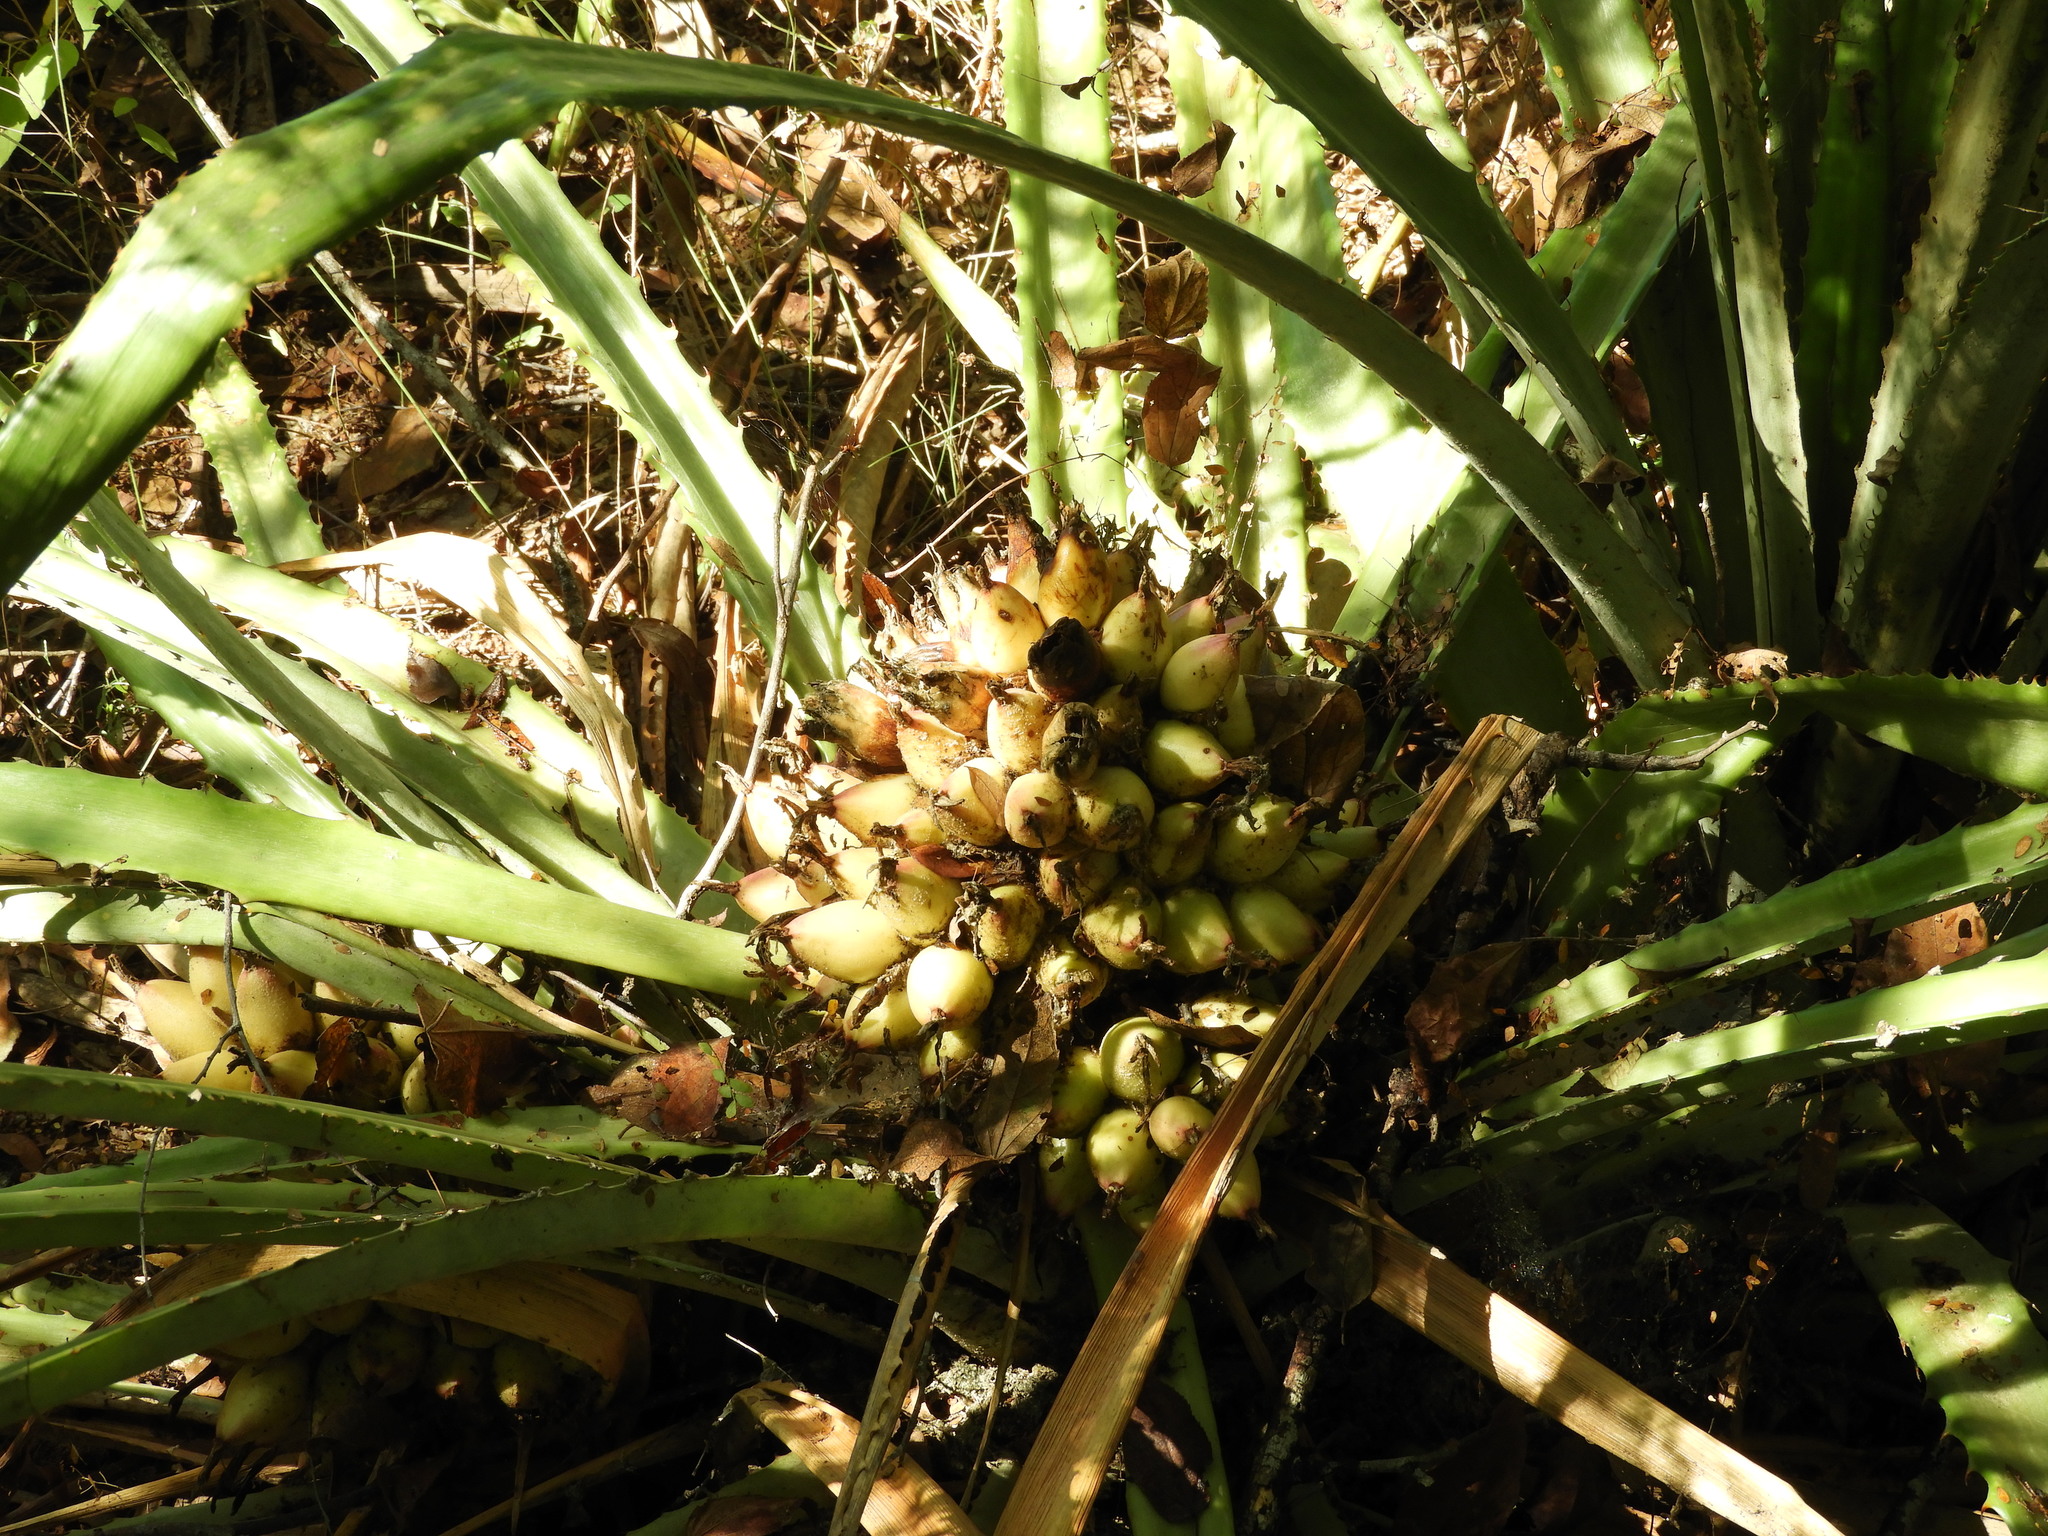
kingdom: Plantae
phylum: Tracheophyta
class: Liliopsida
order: Poales
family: Bromeliaceae
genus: Bromelia
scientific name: Bromelia hemisphaerica
